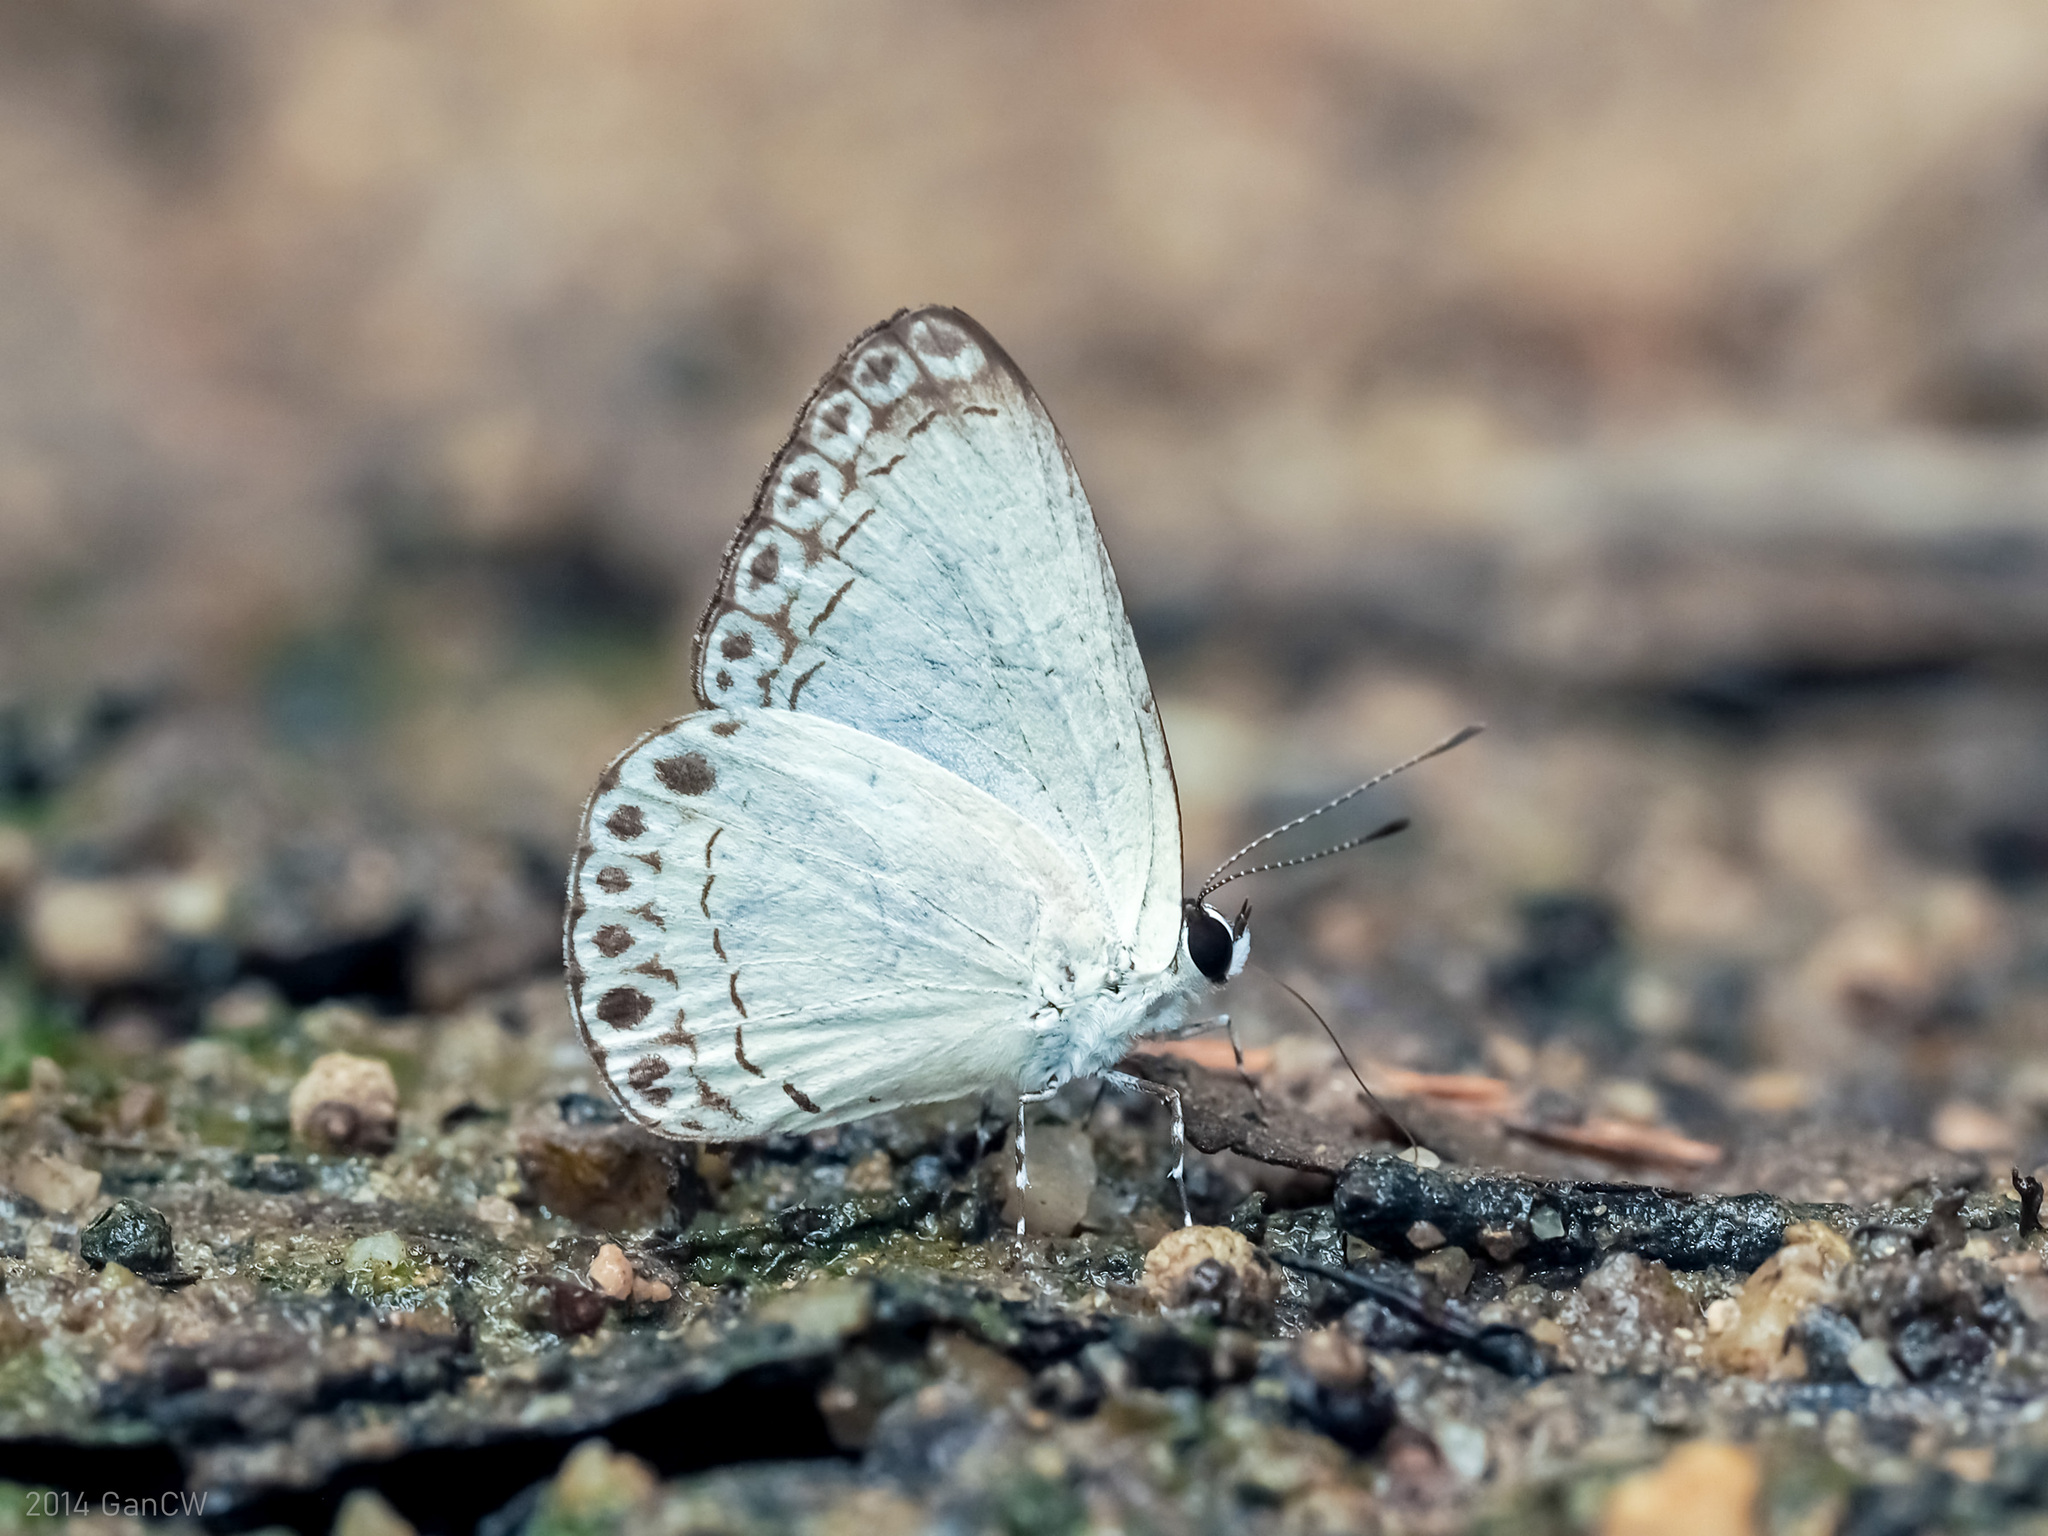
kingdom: Animalia
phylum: Arthropoda
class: Insecta
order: Lepidoptera
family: Lycaenidae
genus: Lycaenopsis
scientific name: Lycaenopsis haraldus
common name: Felder's hedge blue
